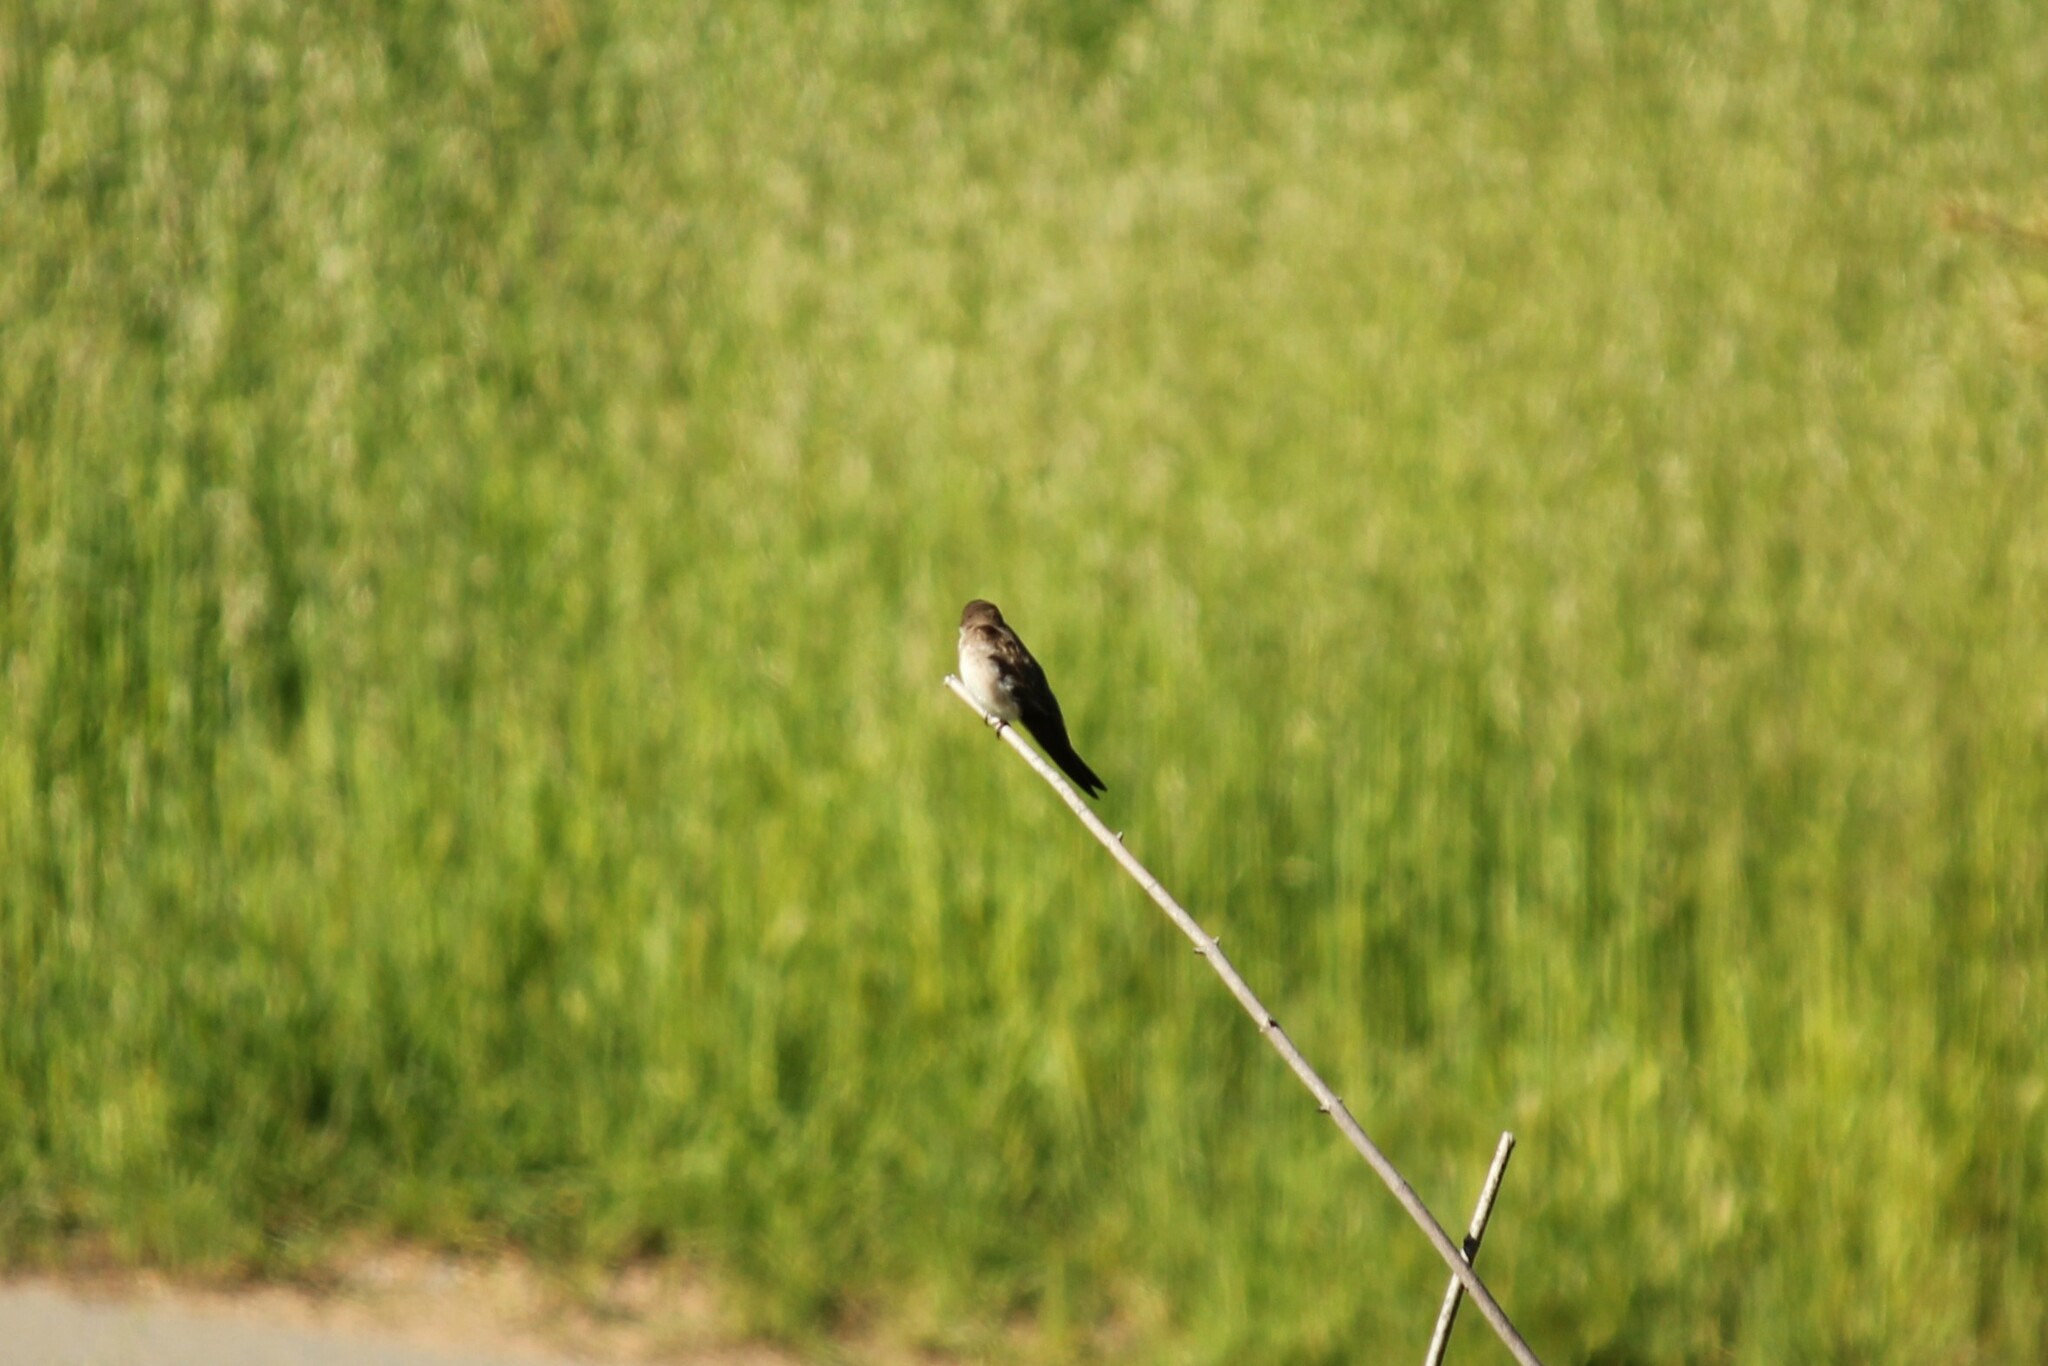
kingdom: Animalia
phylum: Chordata
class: Aves
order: Passeriformes
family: Hirundinidae
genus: Stelgidopteryx
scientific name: Stelgidopteryx serripennis
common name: Northern rough-winged swallow
